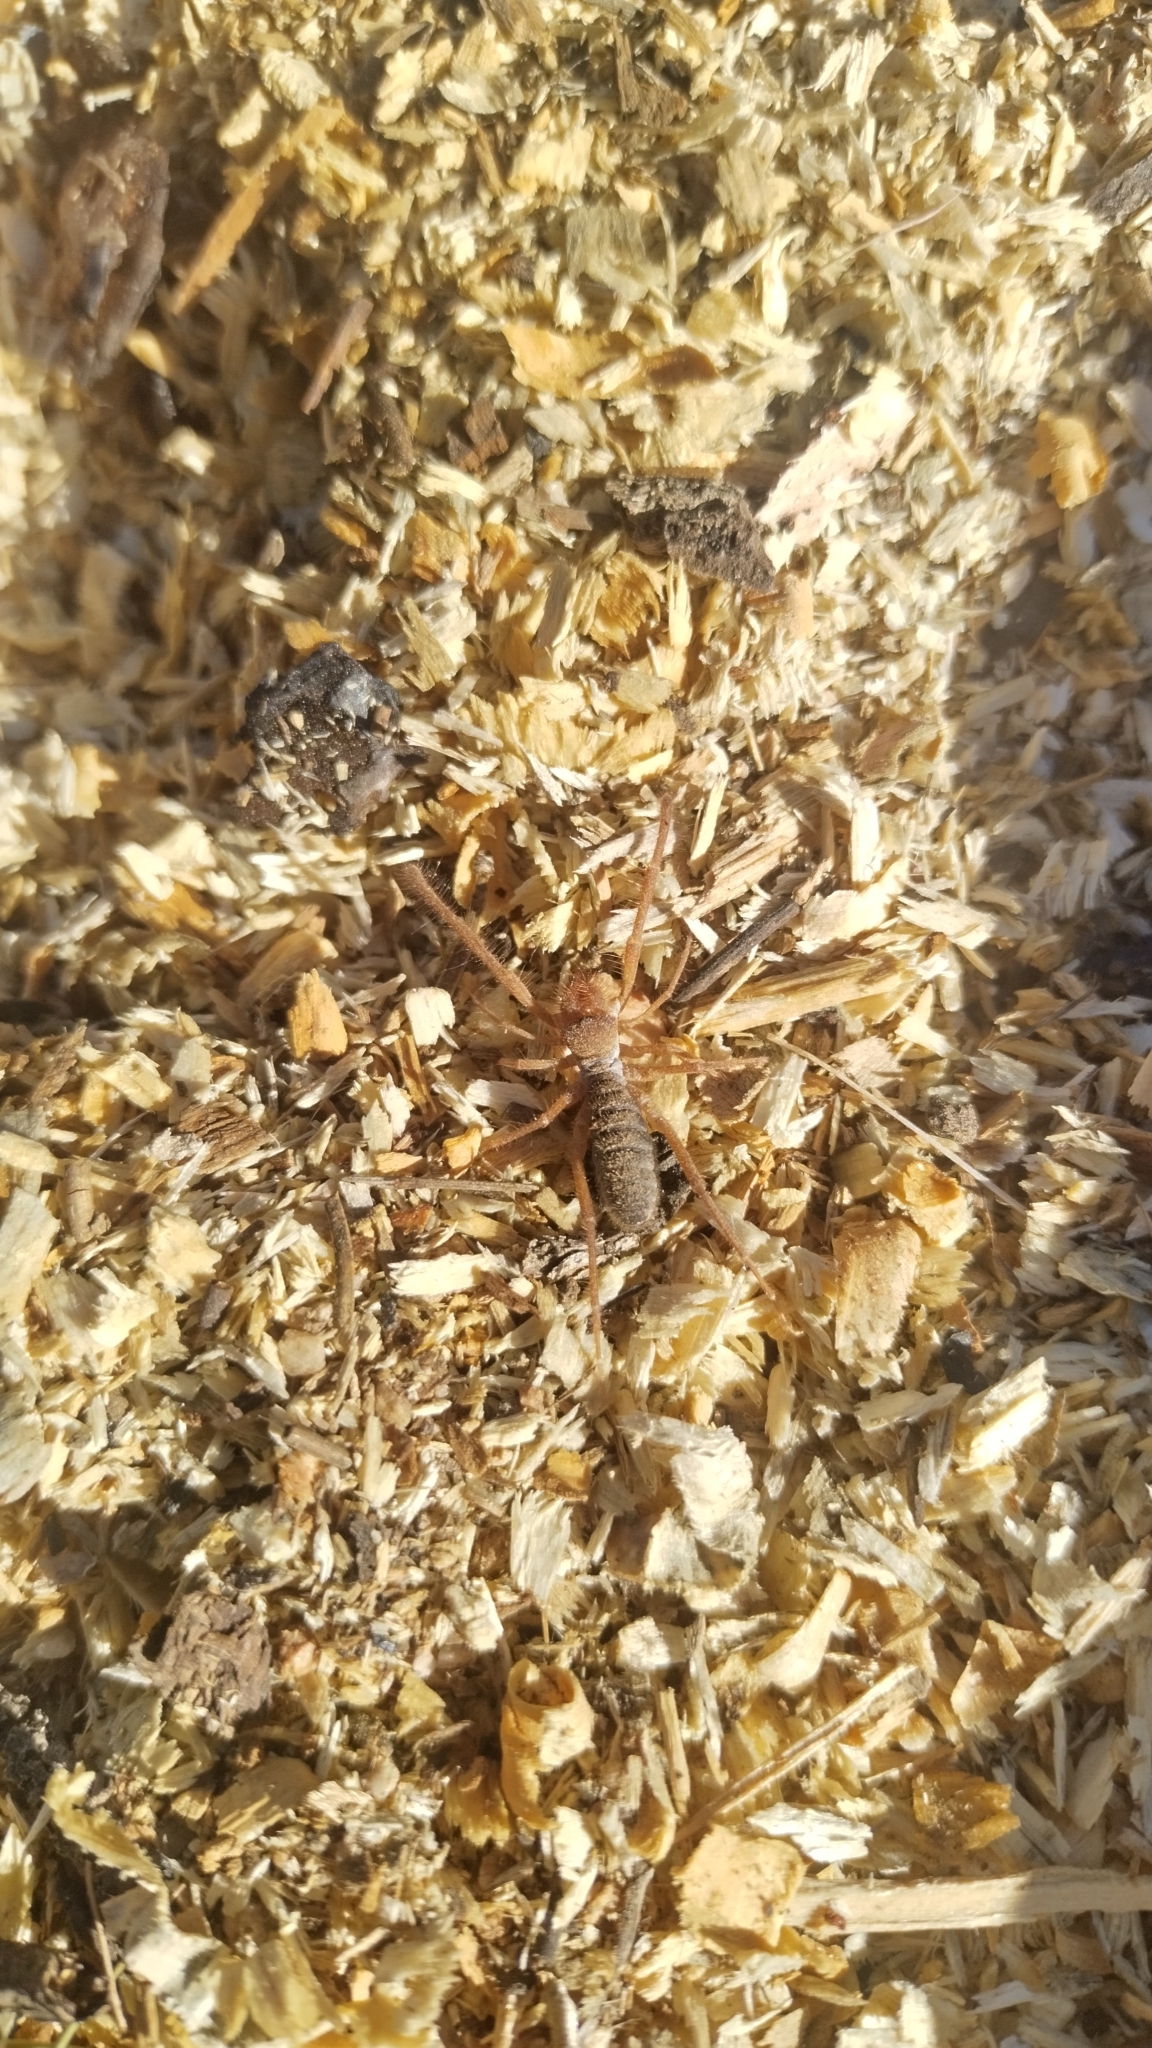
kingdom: Animalia
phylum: Arthropoda
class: Arachnida
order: Solifugae
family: Eremobatidae
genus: Hemerotrecha
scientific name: Hemerotrecha cornuta
